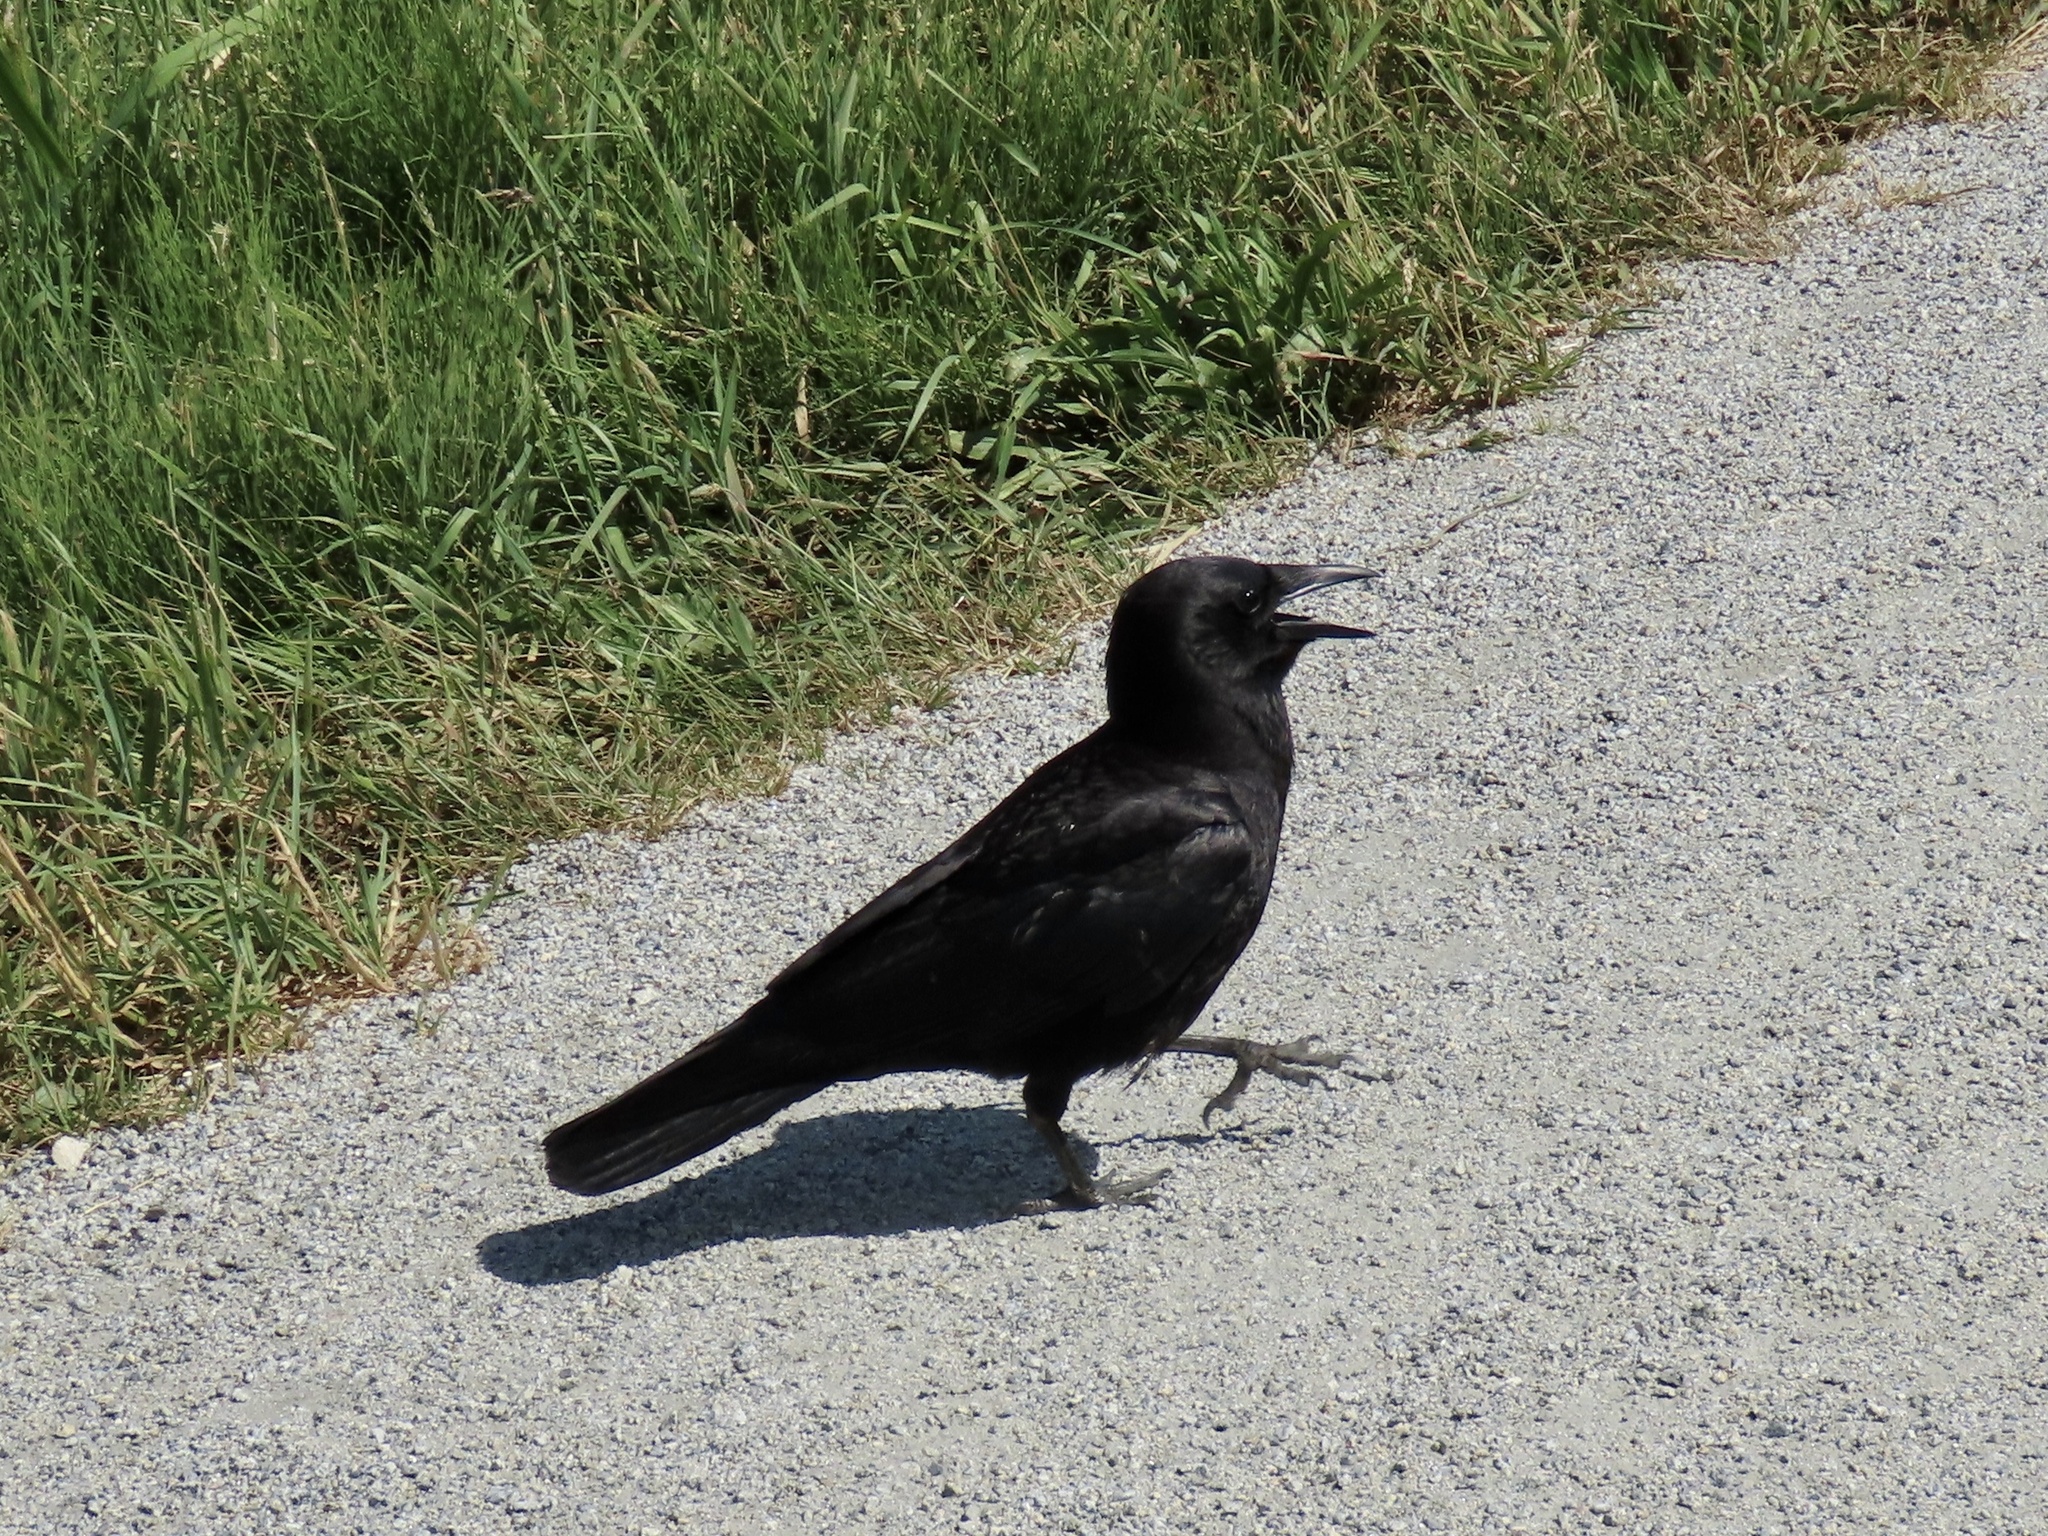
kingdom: Animalia
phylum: Chordata
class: Aves
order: Passeriformes
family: Corvidae
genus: Corvus
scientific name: Corvus brachyrhynchos
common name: American crow
